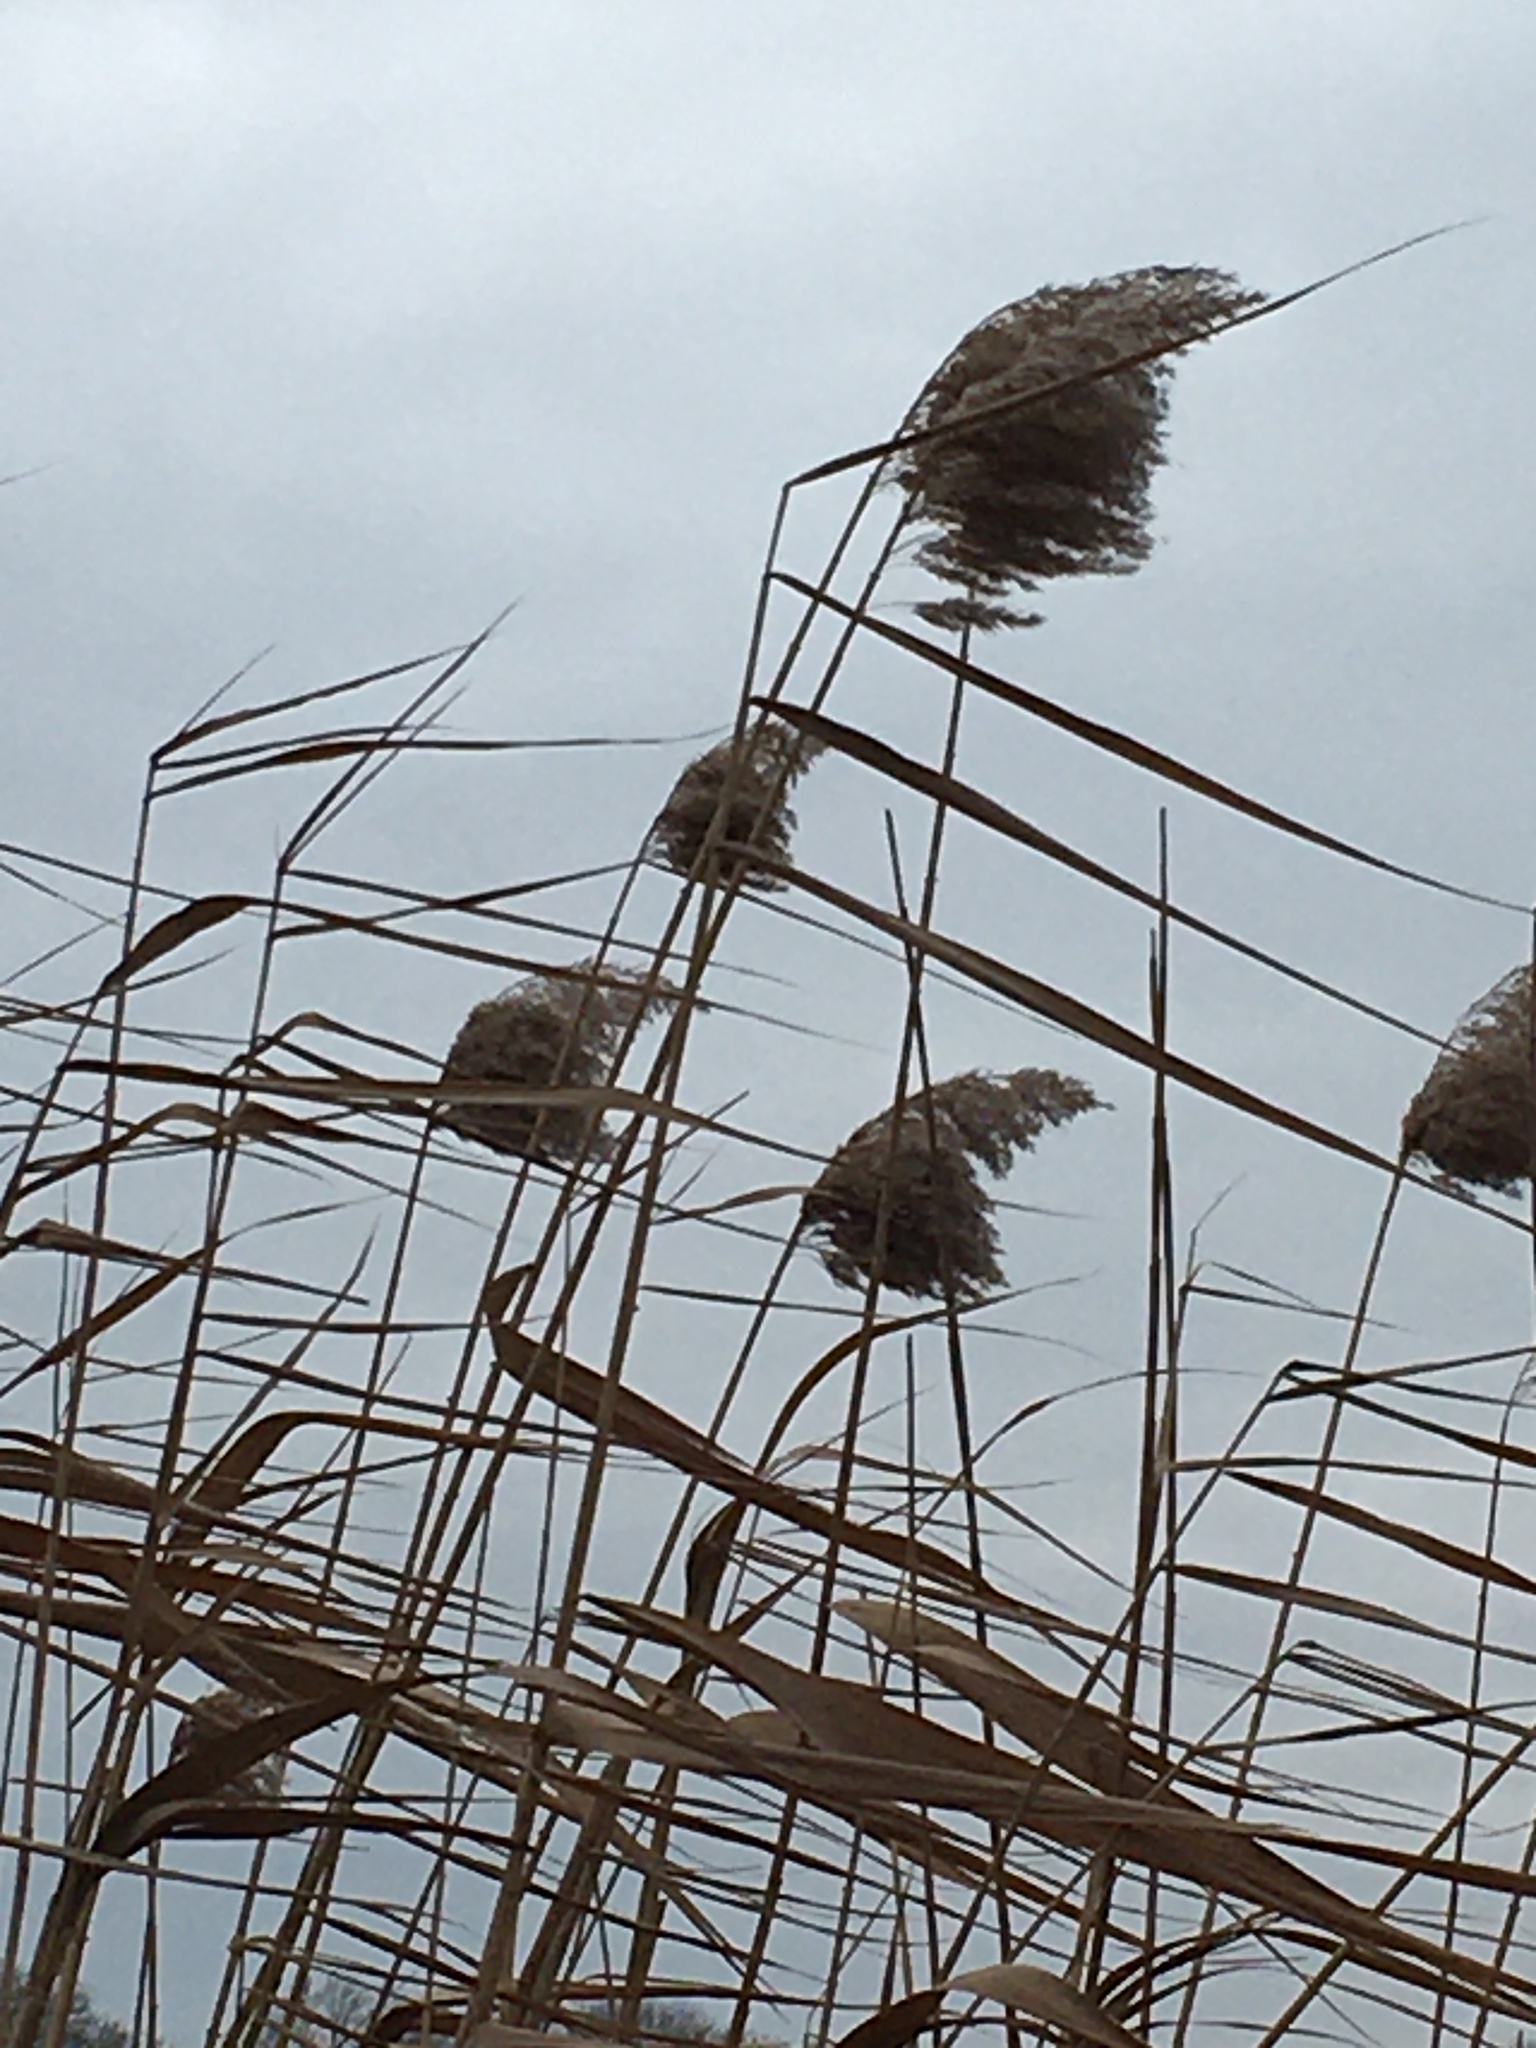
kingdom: Plantae
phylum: Tracheophyta
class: Liliopsida
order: Poales
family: Poaceae
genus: Phragmites
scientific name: Phragmites australis
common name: Common reed
